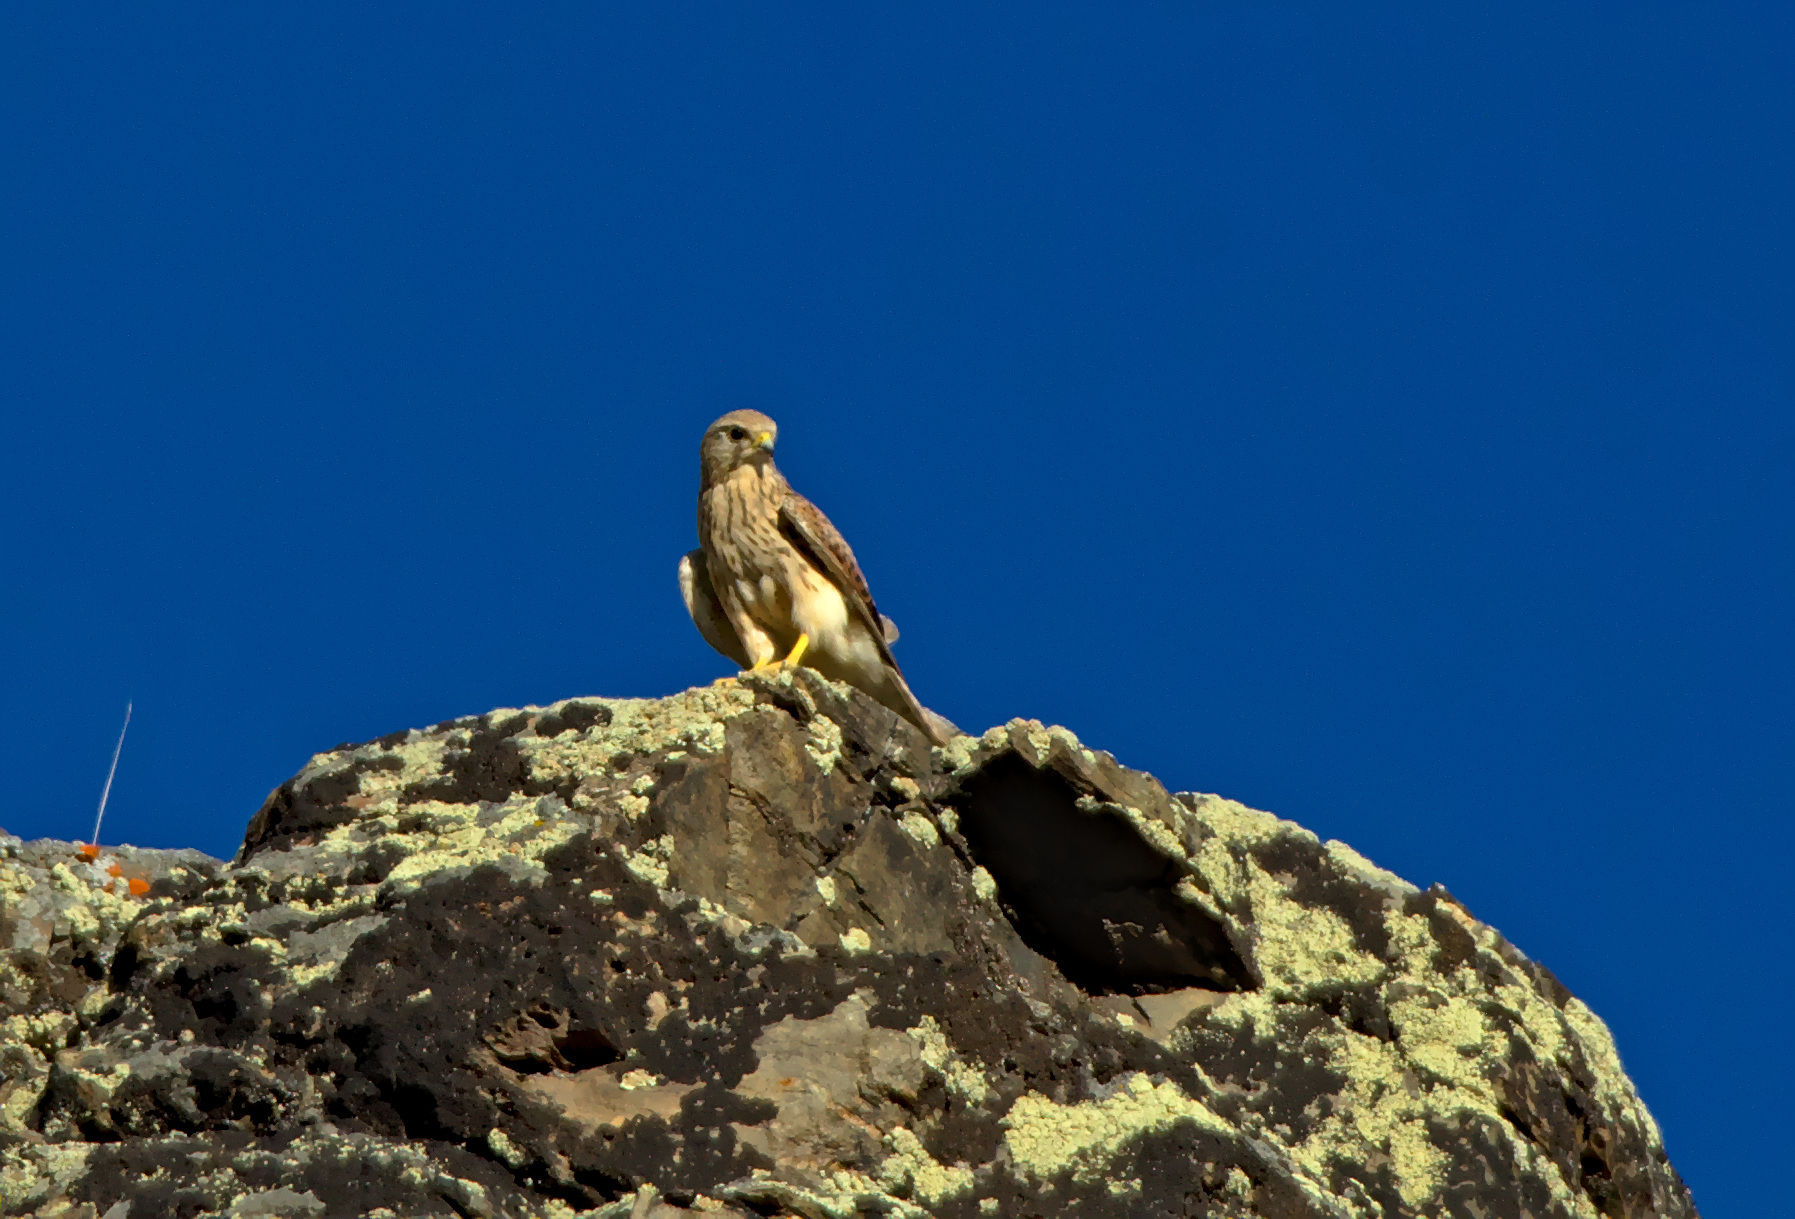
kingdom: Animalia
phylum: Chordata
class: Aves
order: Falconiformes
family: Falconidae
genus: Falco
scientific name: Falco tinnunculus
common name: Common kestrel
